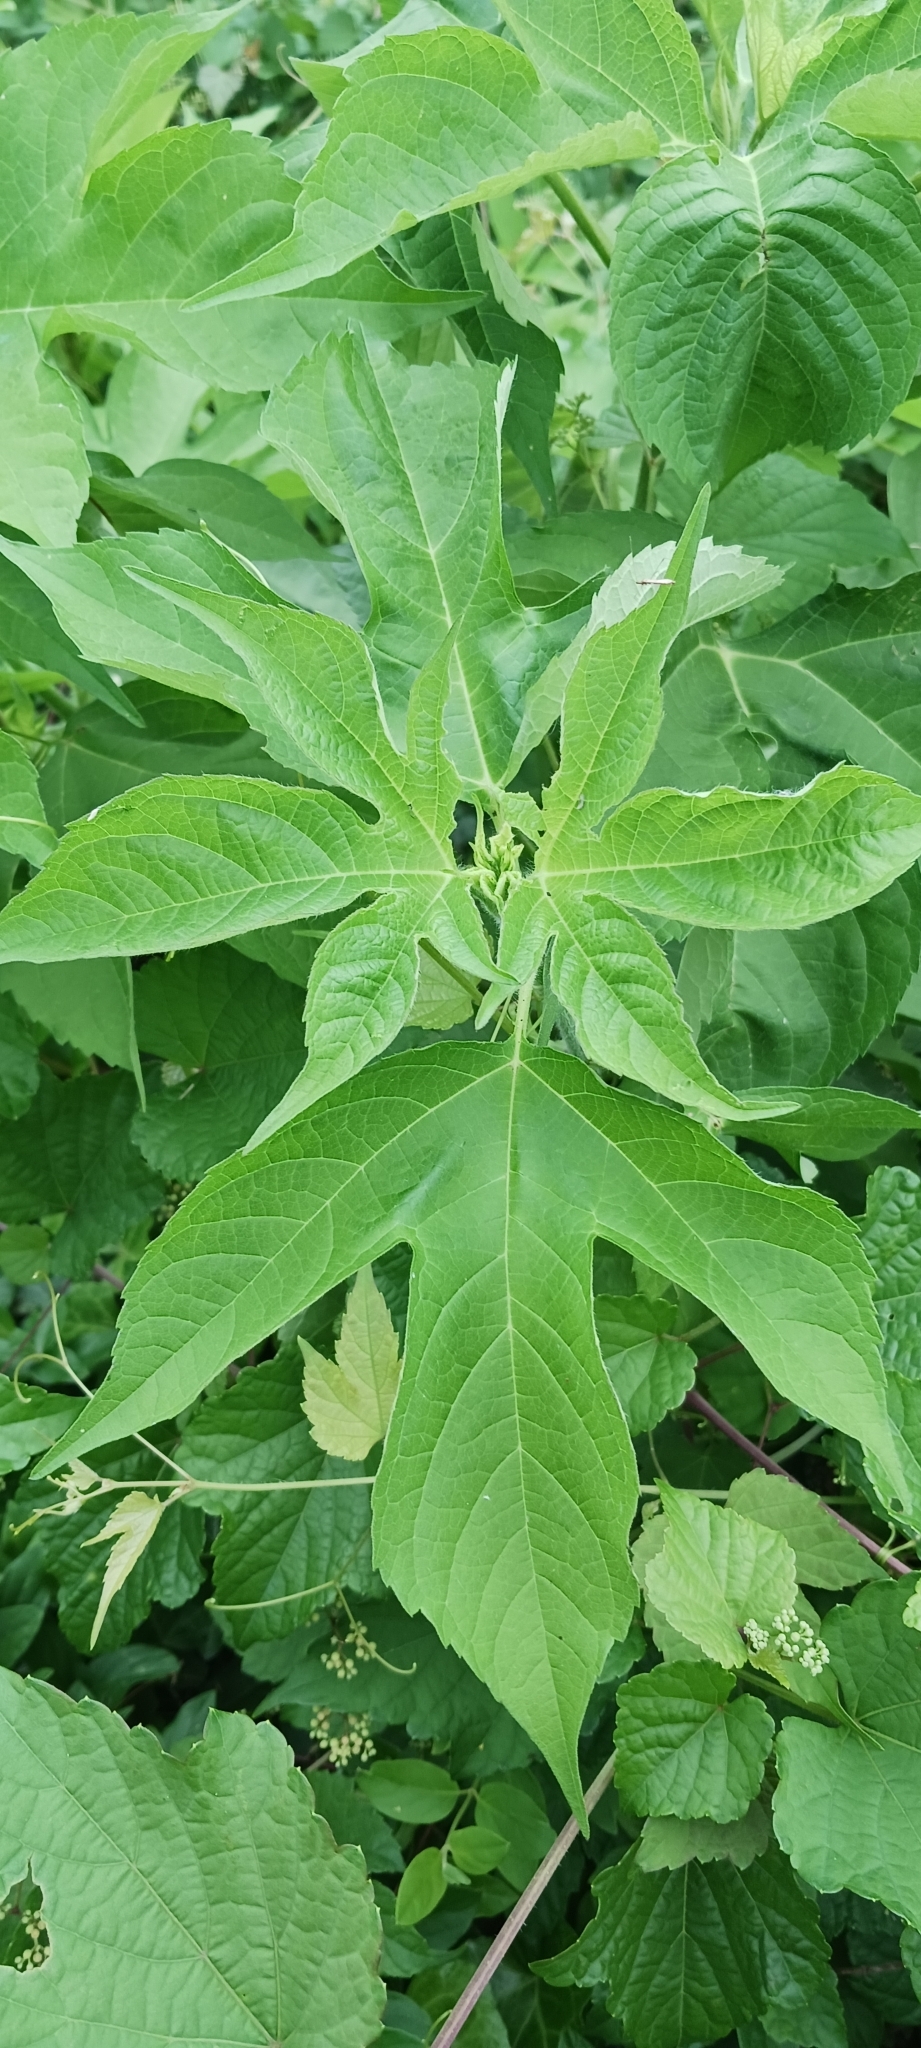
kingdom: Plantae
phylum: Tracheophyta
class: Magnoliopsida
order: Asterales
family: Asteraceae
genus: Ambrosia
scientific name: Ambrosia trifida
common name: Giant ragweed
